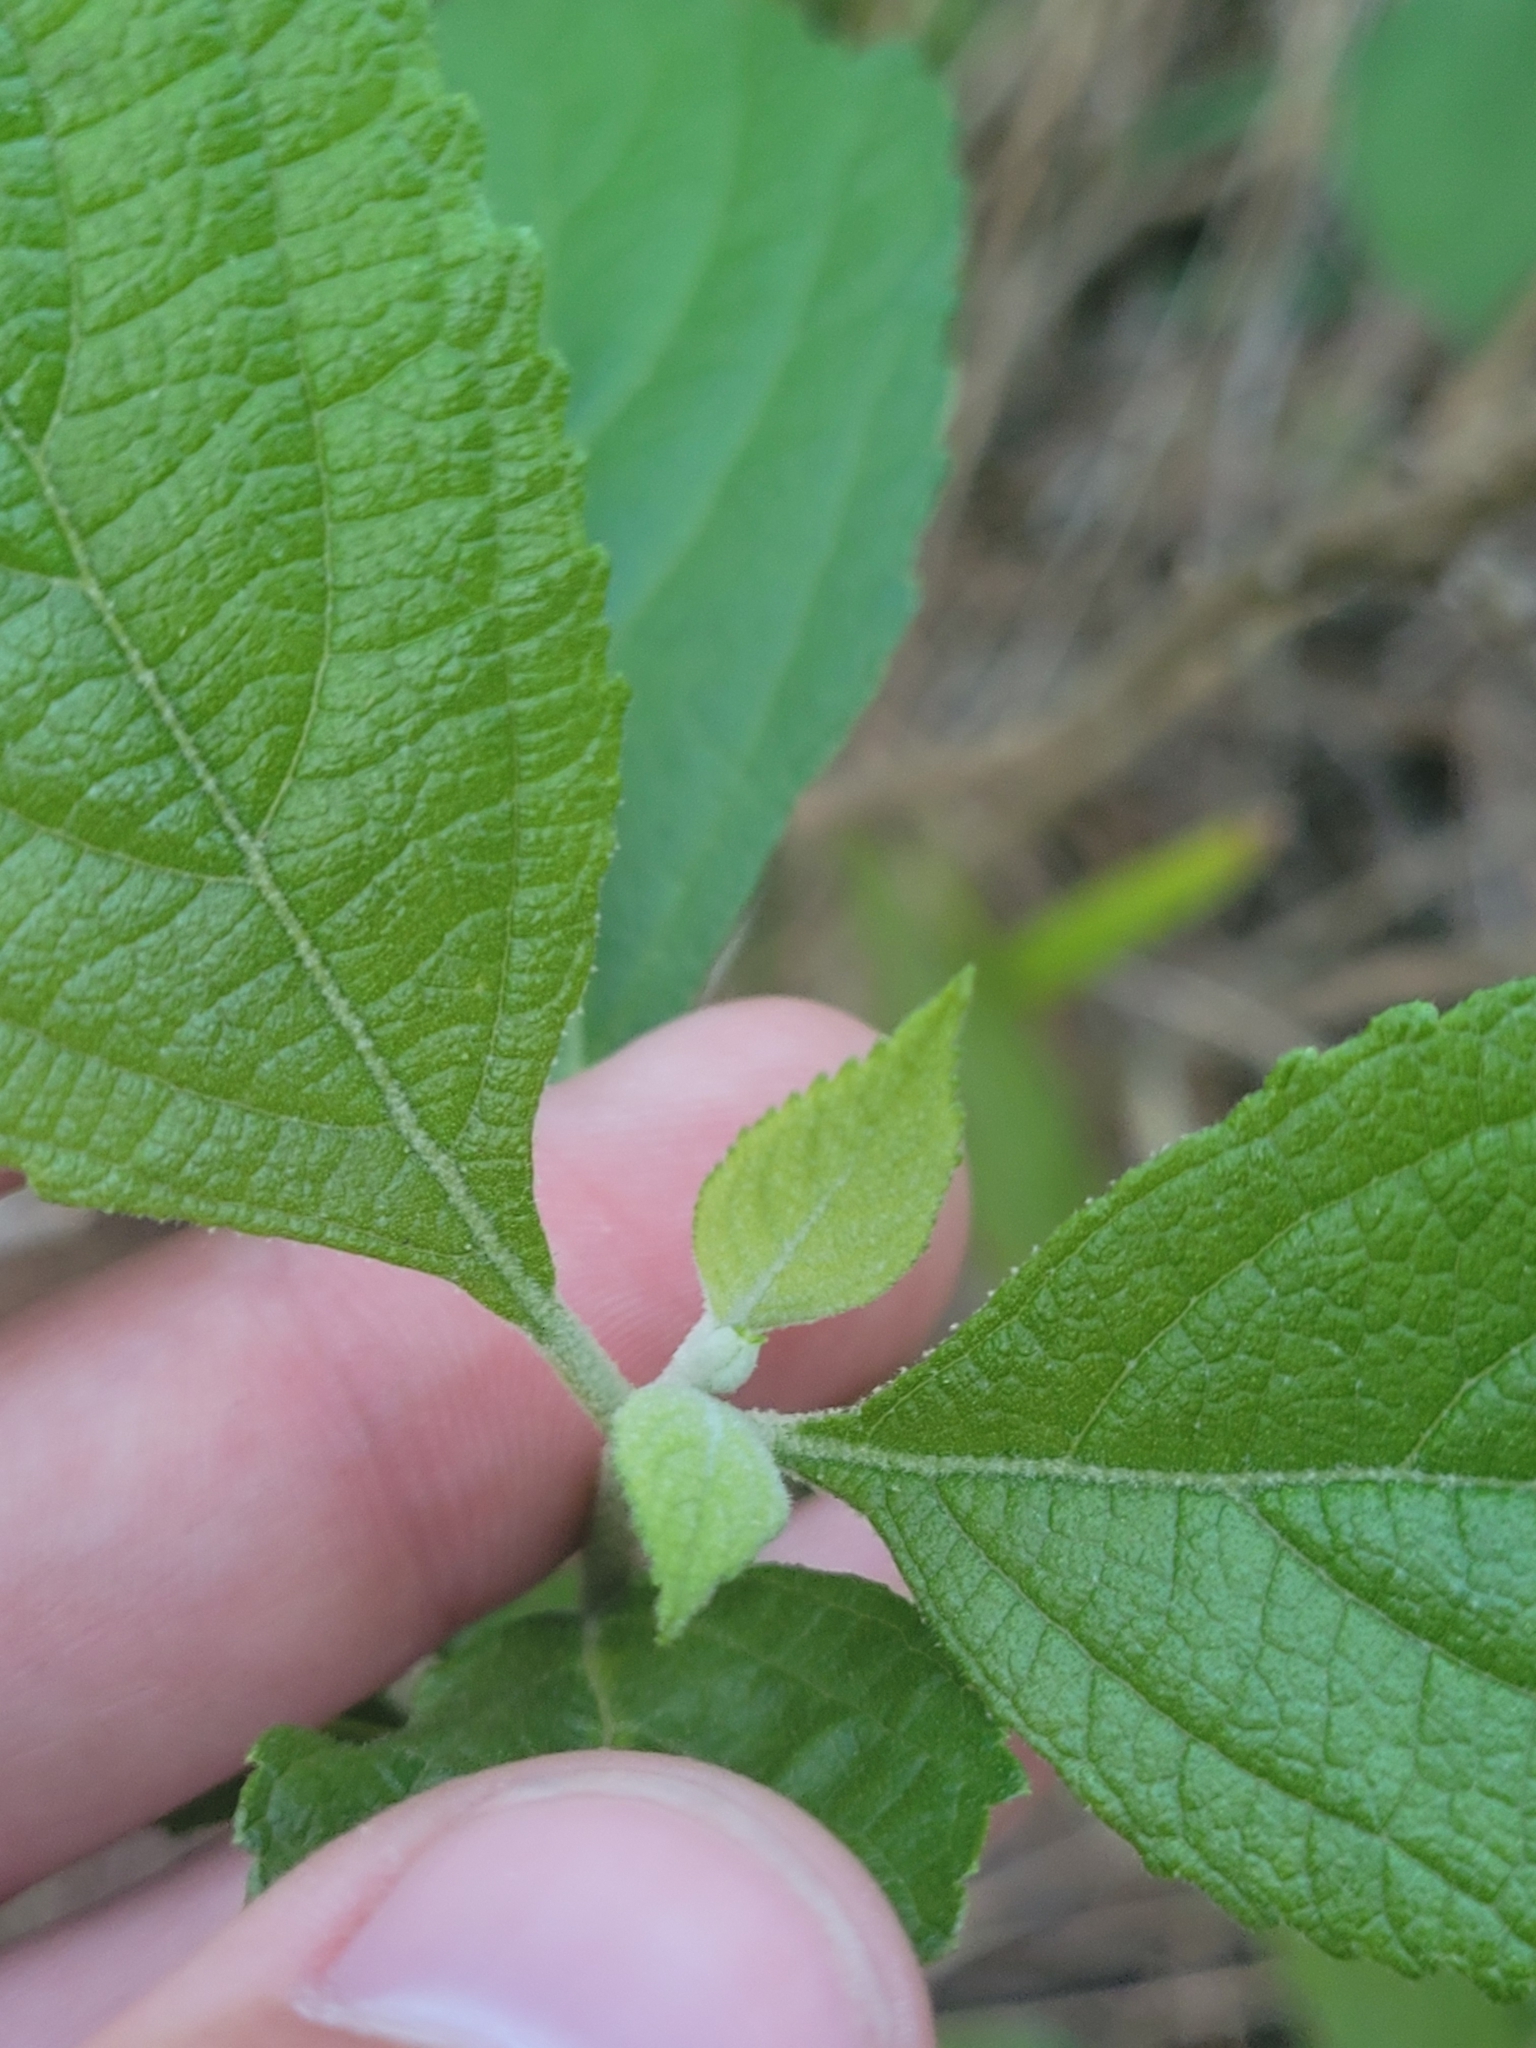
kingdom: Plantae
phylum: Tracheophyta
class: Magnoliopsida
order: Lamiales
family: Lamiaceae
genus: Callicarpa
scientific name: Callicarpa americana
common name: American beautyberry
